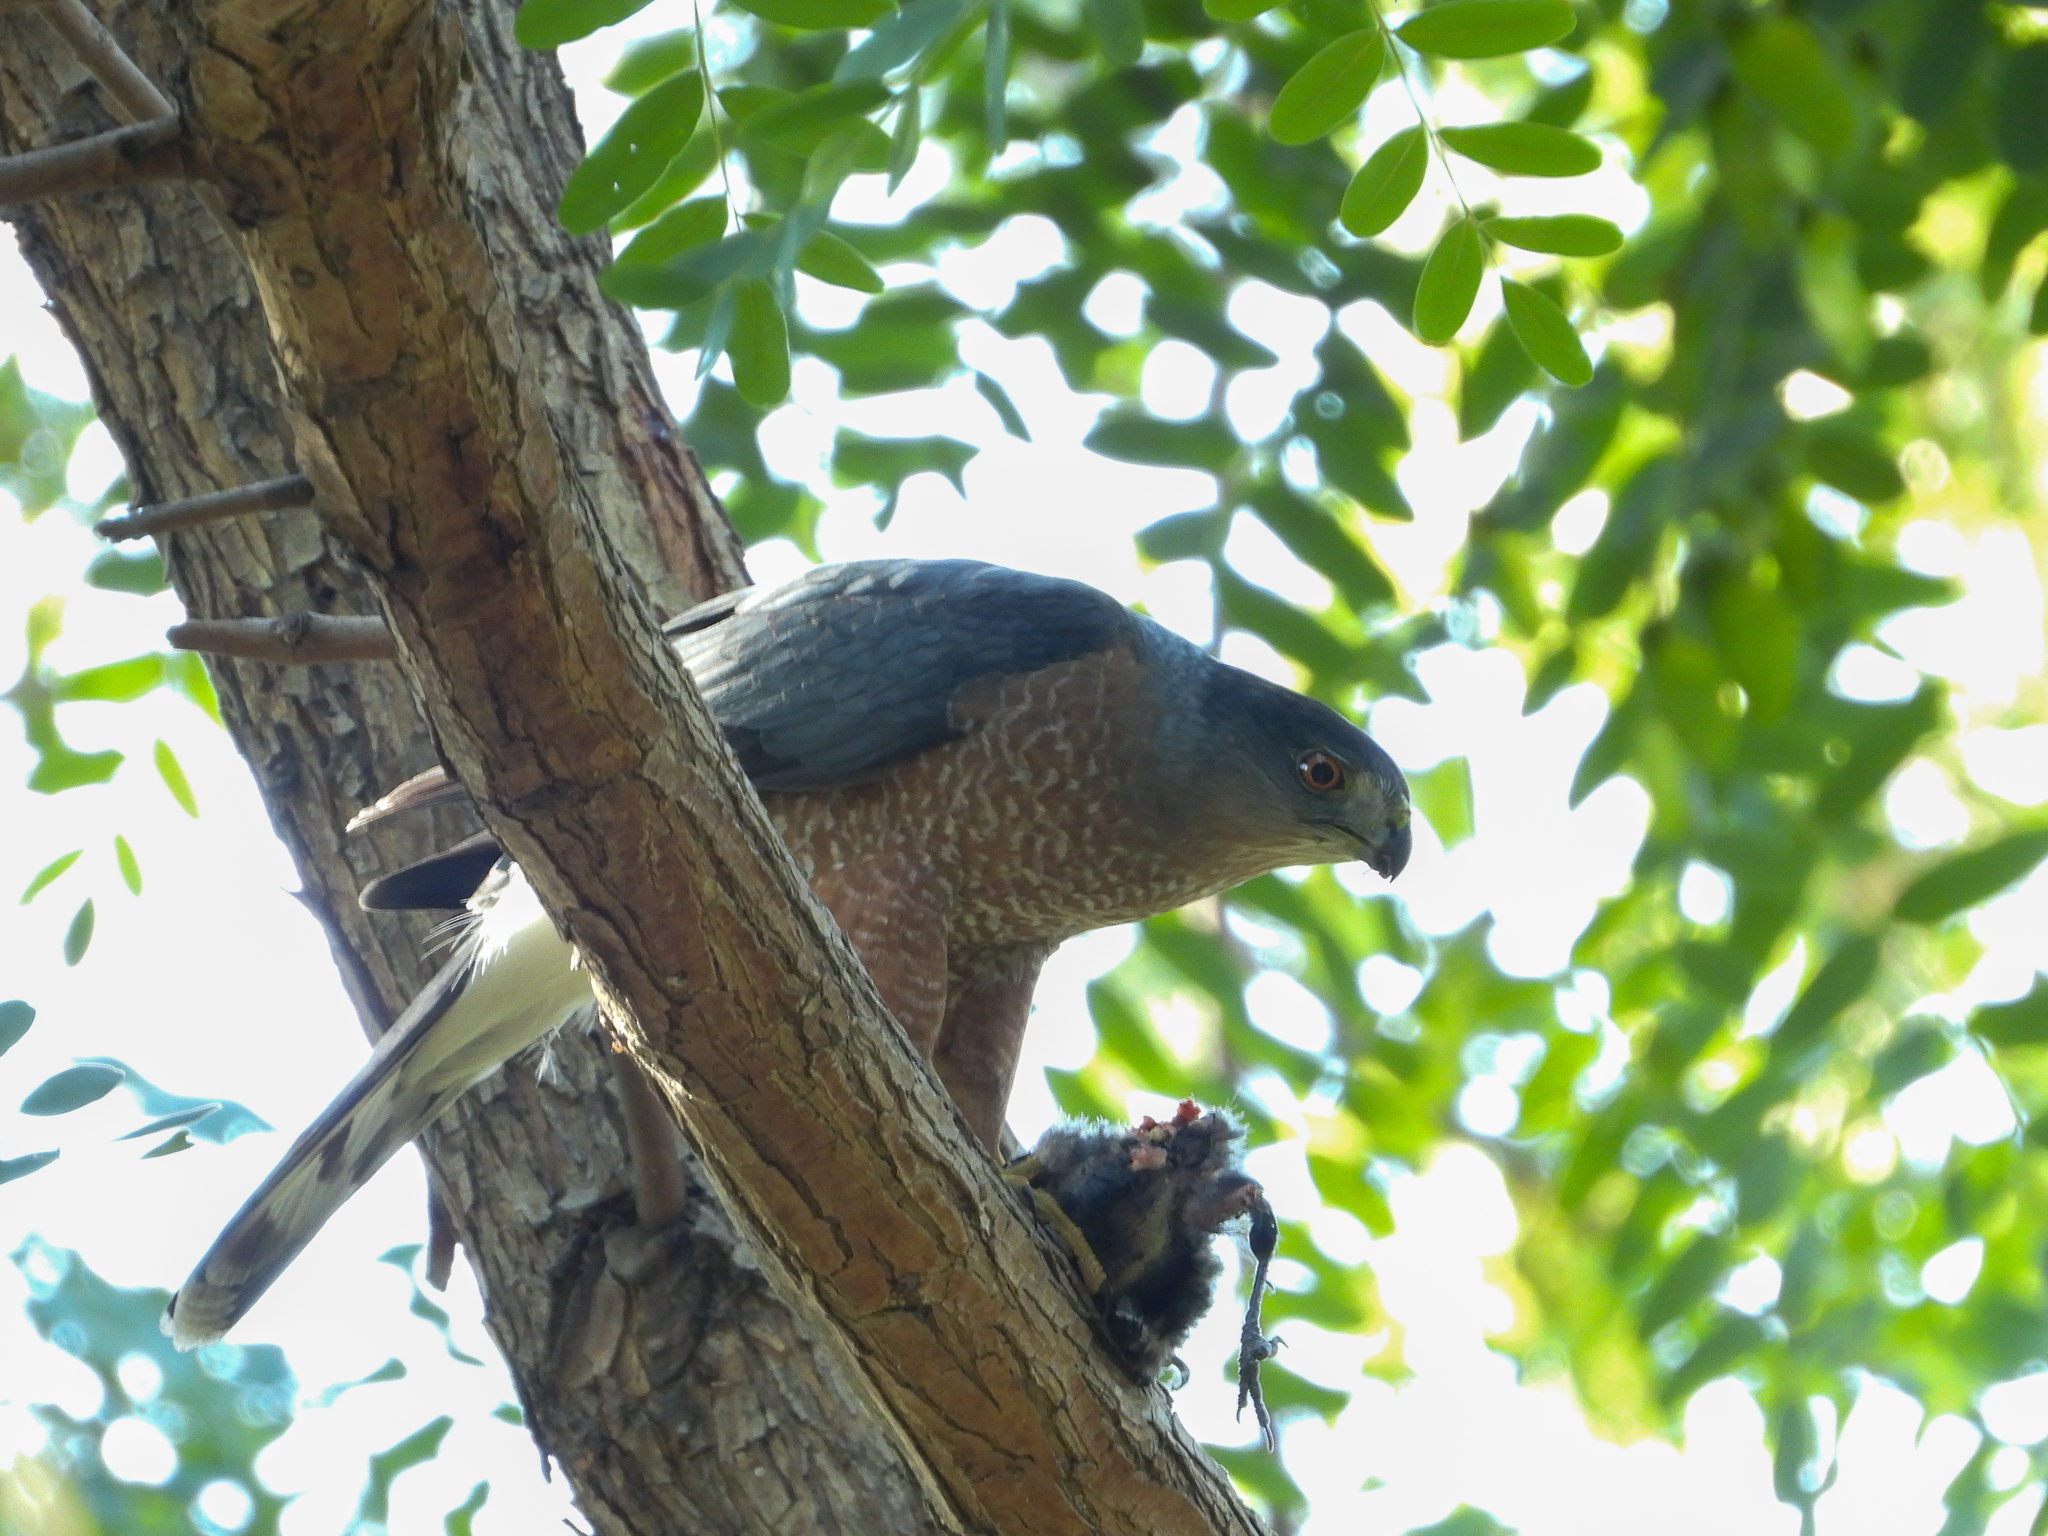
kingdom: Animalia
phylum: Chordata
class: Aves
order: Accipitriformes
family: Accipitridae
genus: Accipiter
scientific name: Accipiter cooperii
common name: Cooper's hawk
